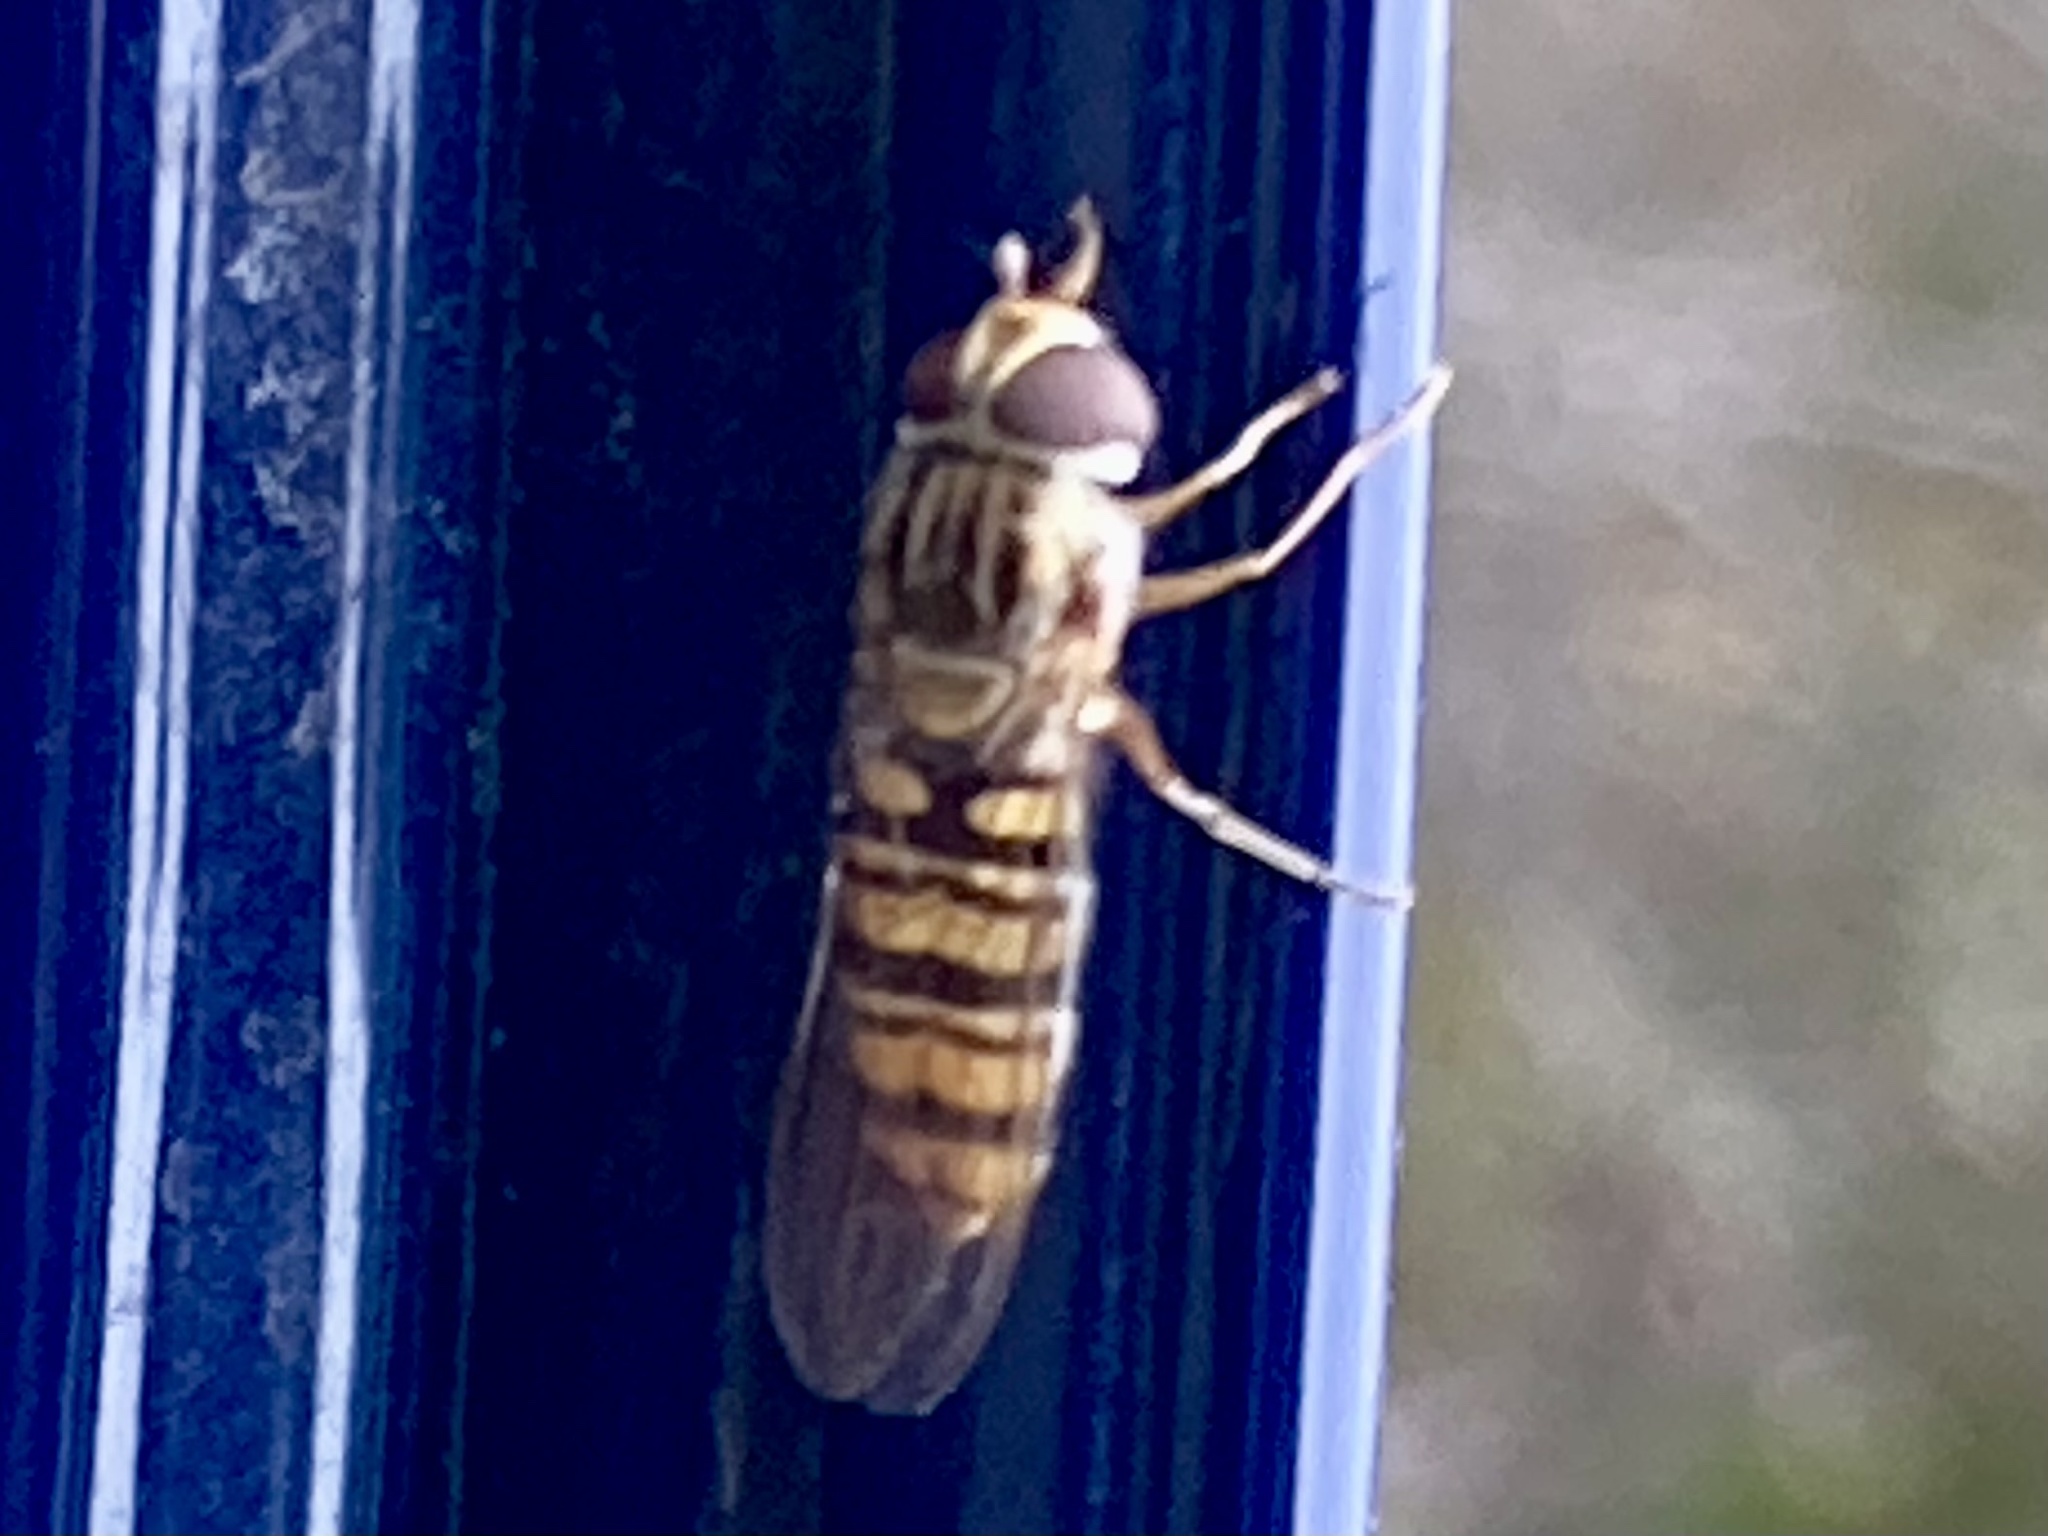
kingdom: Animalia
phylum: Arthropoda
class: Insecta
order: Diptera
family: Syrphidae
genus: Episyrphus
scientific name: Episyrphus balteatus
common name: Marmalade hoverfly
